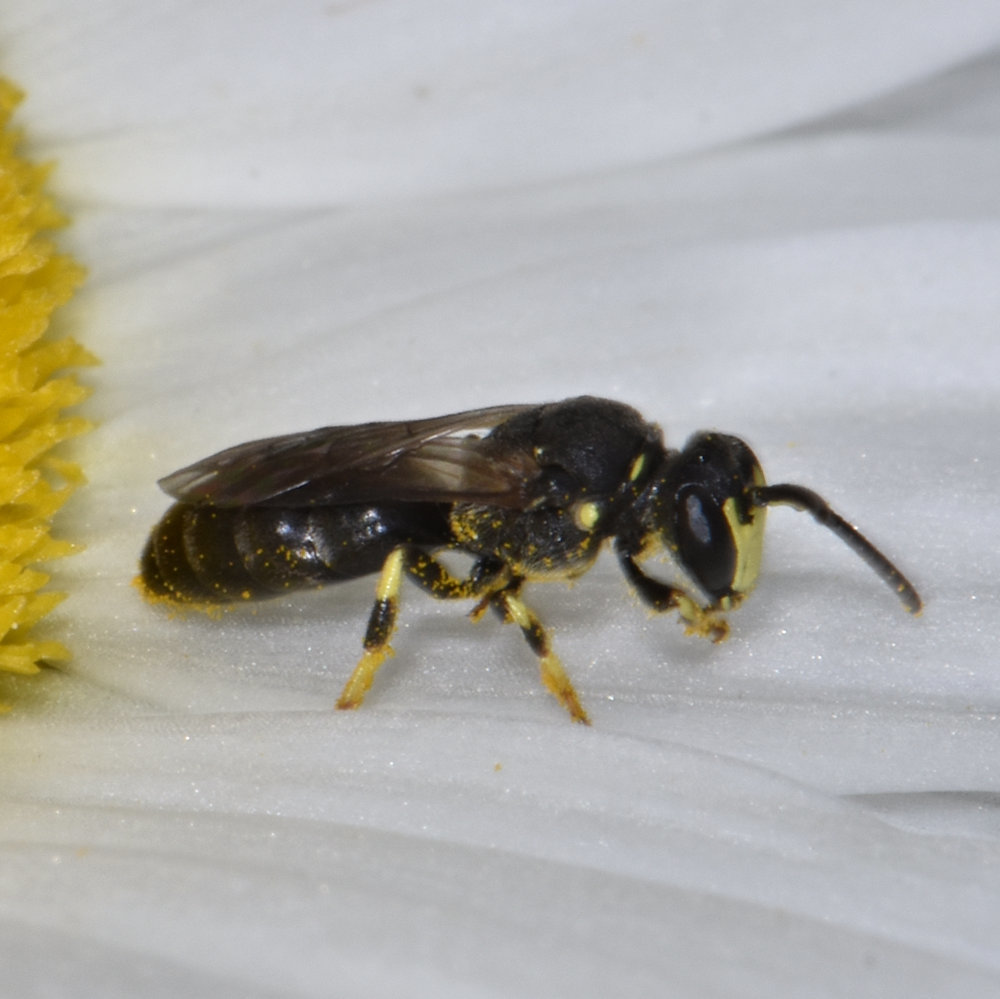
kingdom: Animalia
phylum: Arthropoda
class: Insecta
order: Hymenoptera
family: Colletidae
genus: Hylaeus
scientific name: Hylaeus modestus
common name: Yellow-faced bee
